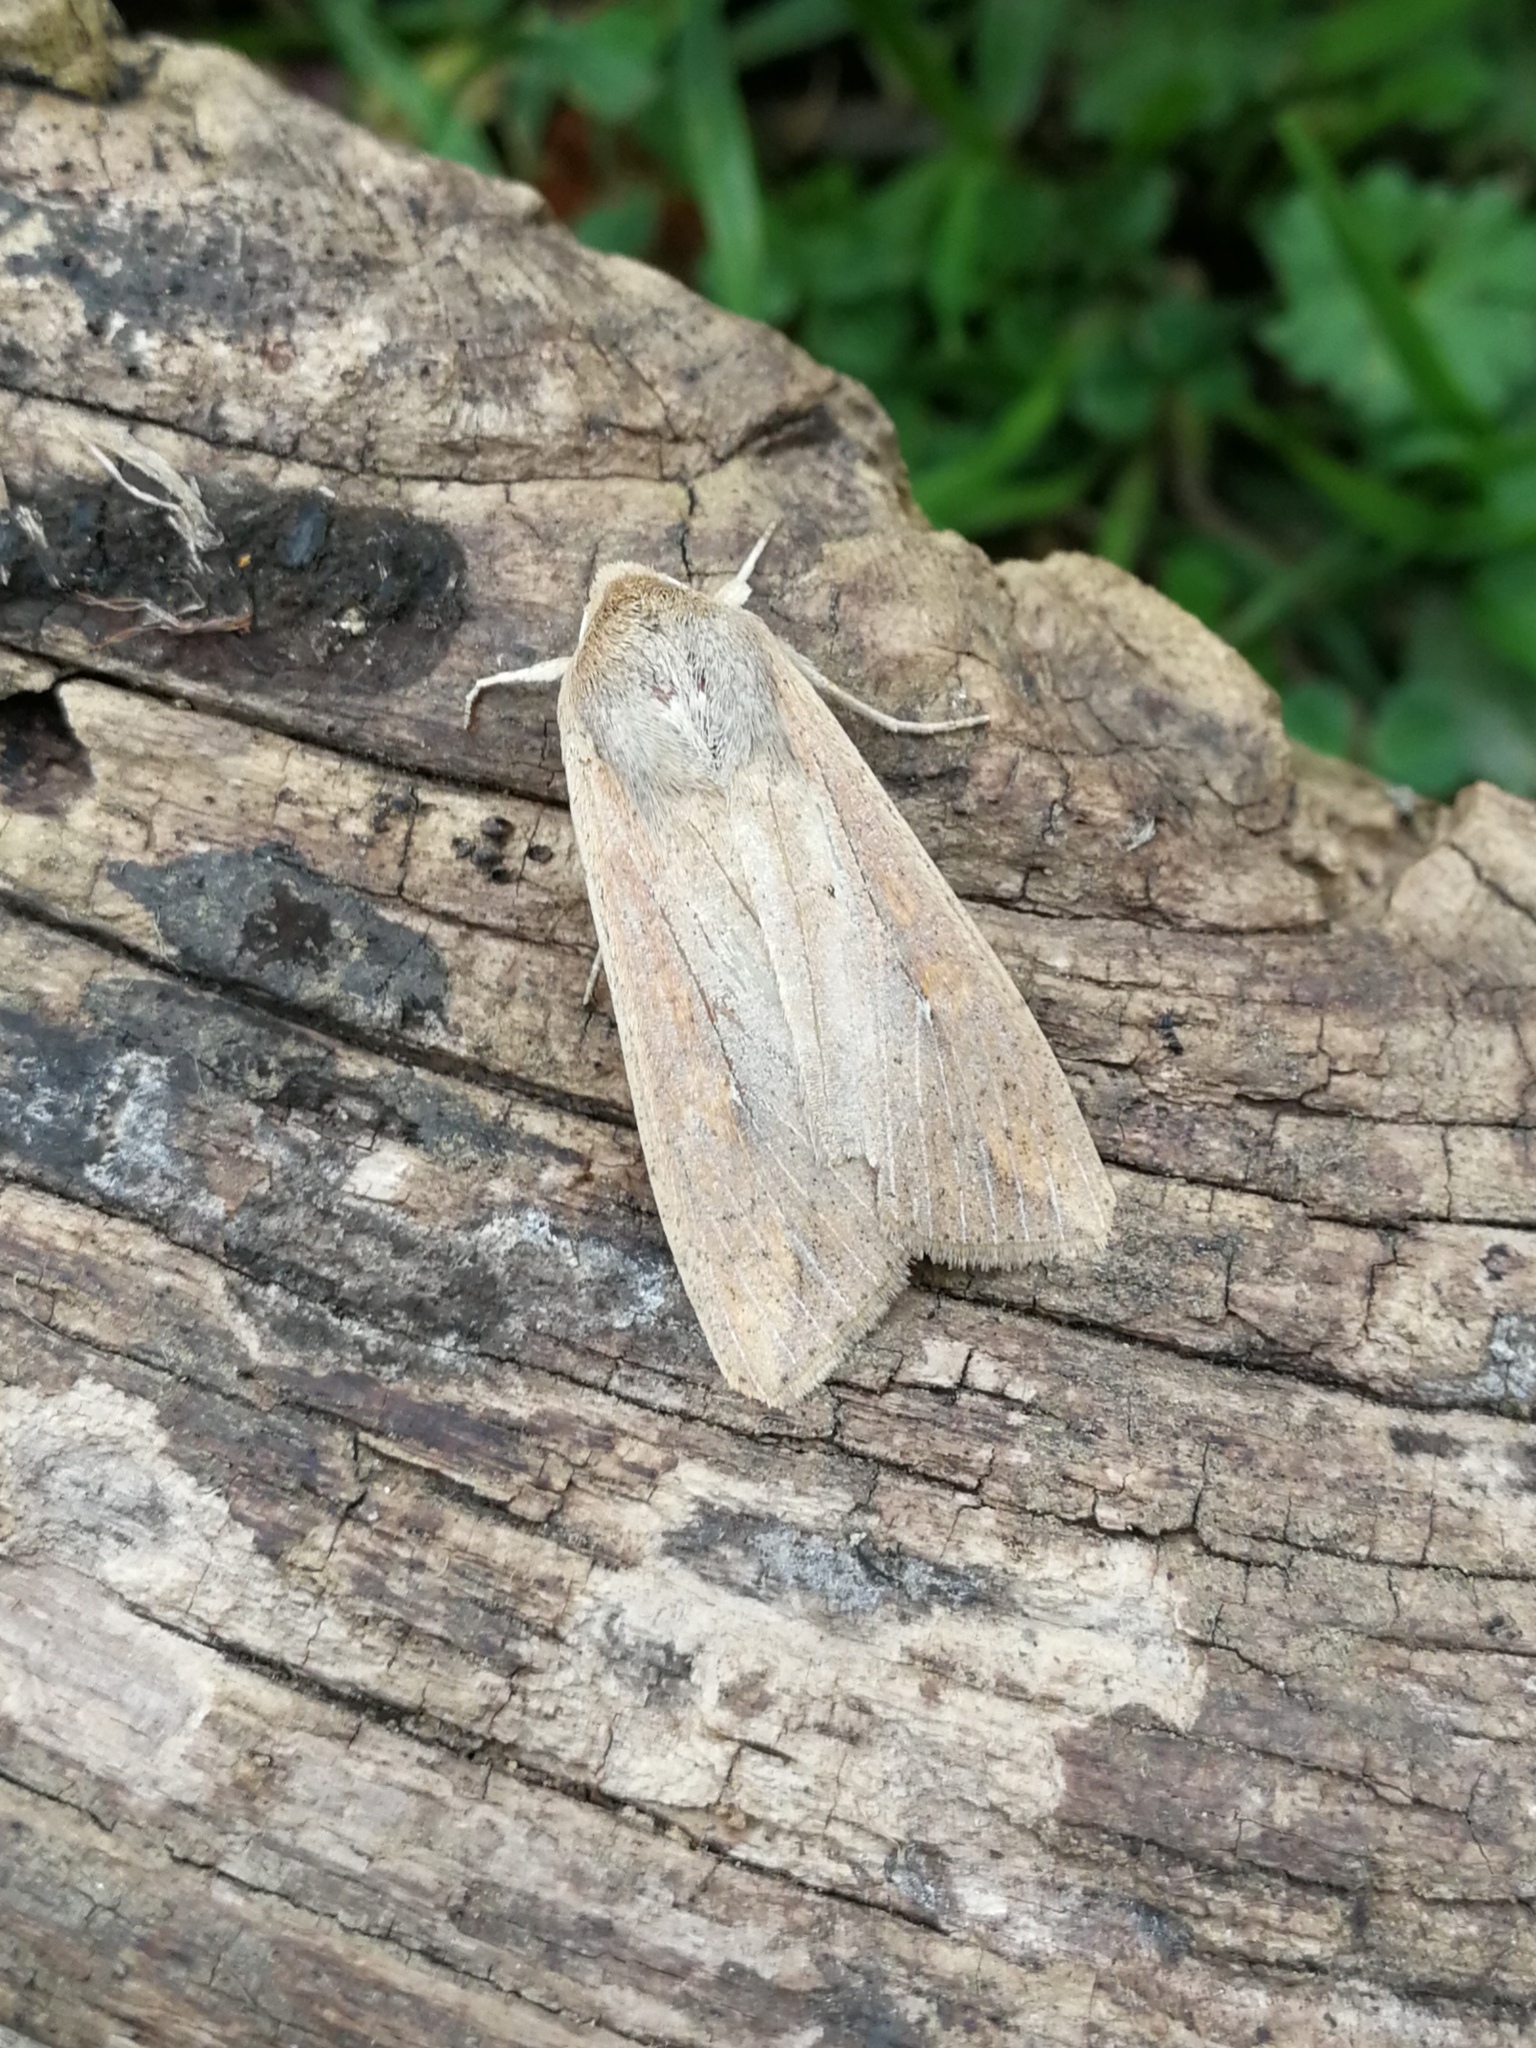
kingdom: Animalia
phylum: Arthropoda
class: Insecta
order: Lepidoptera
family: Noctuidae
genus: Mythimna
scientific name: Mythimna unipuncta
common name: White-speck
